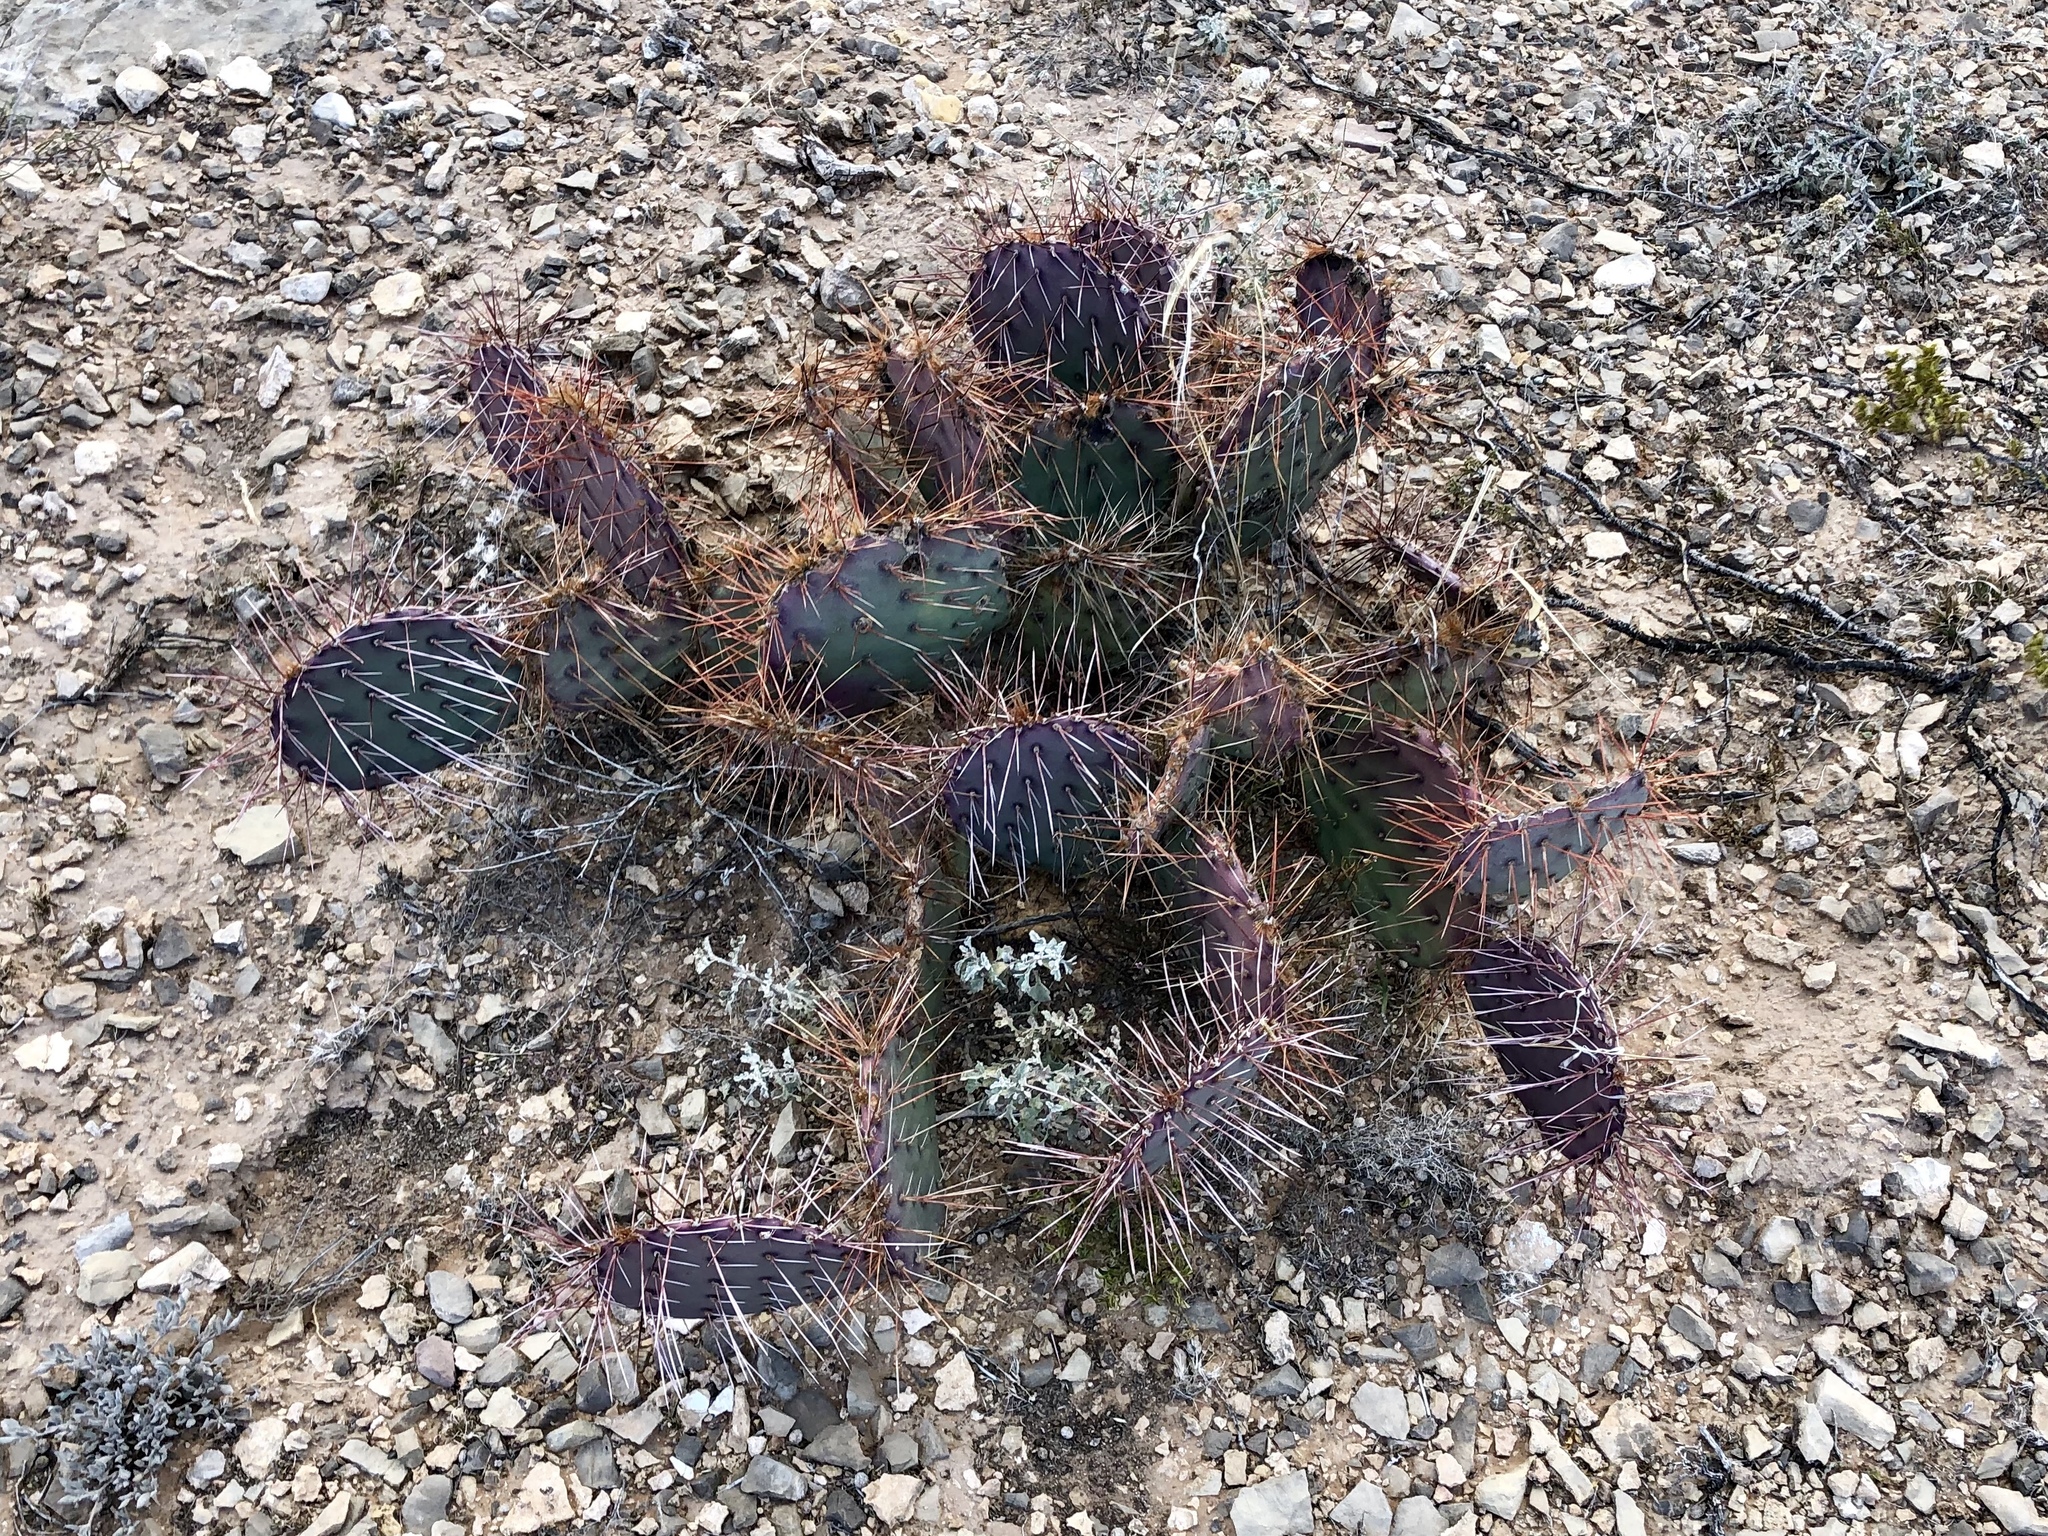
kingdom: Plantae
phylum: Tracheophyta
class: Magnoliopsida
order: Caryophyllales
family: Cactaceae
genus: Opuntia
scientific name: Opuntia phaeacantha
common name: New mexico prickly-pear
